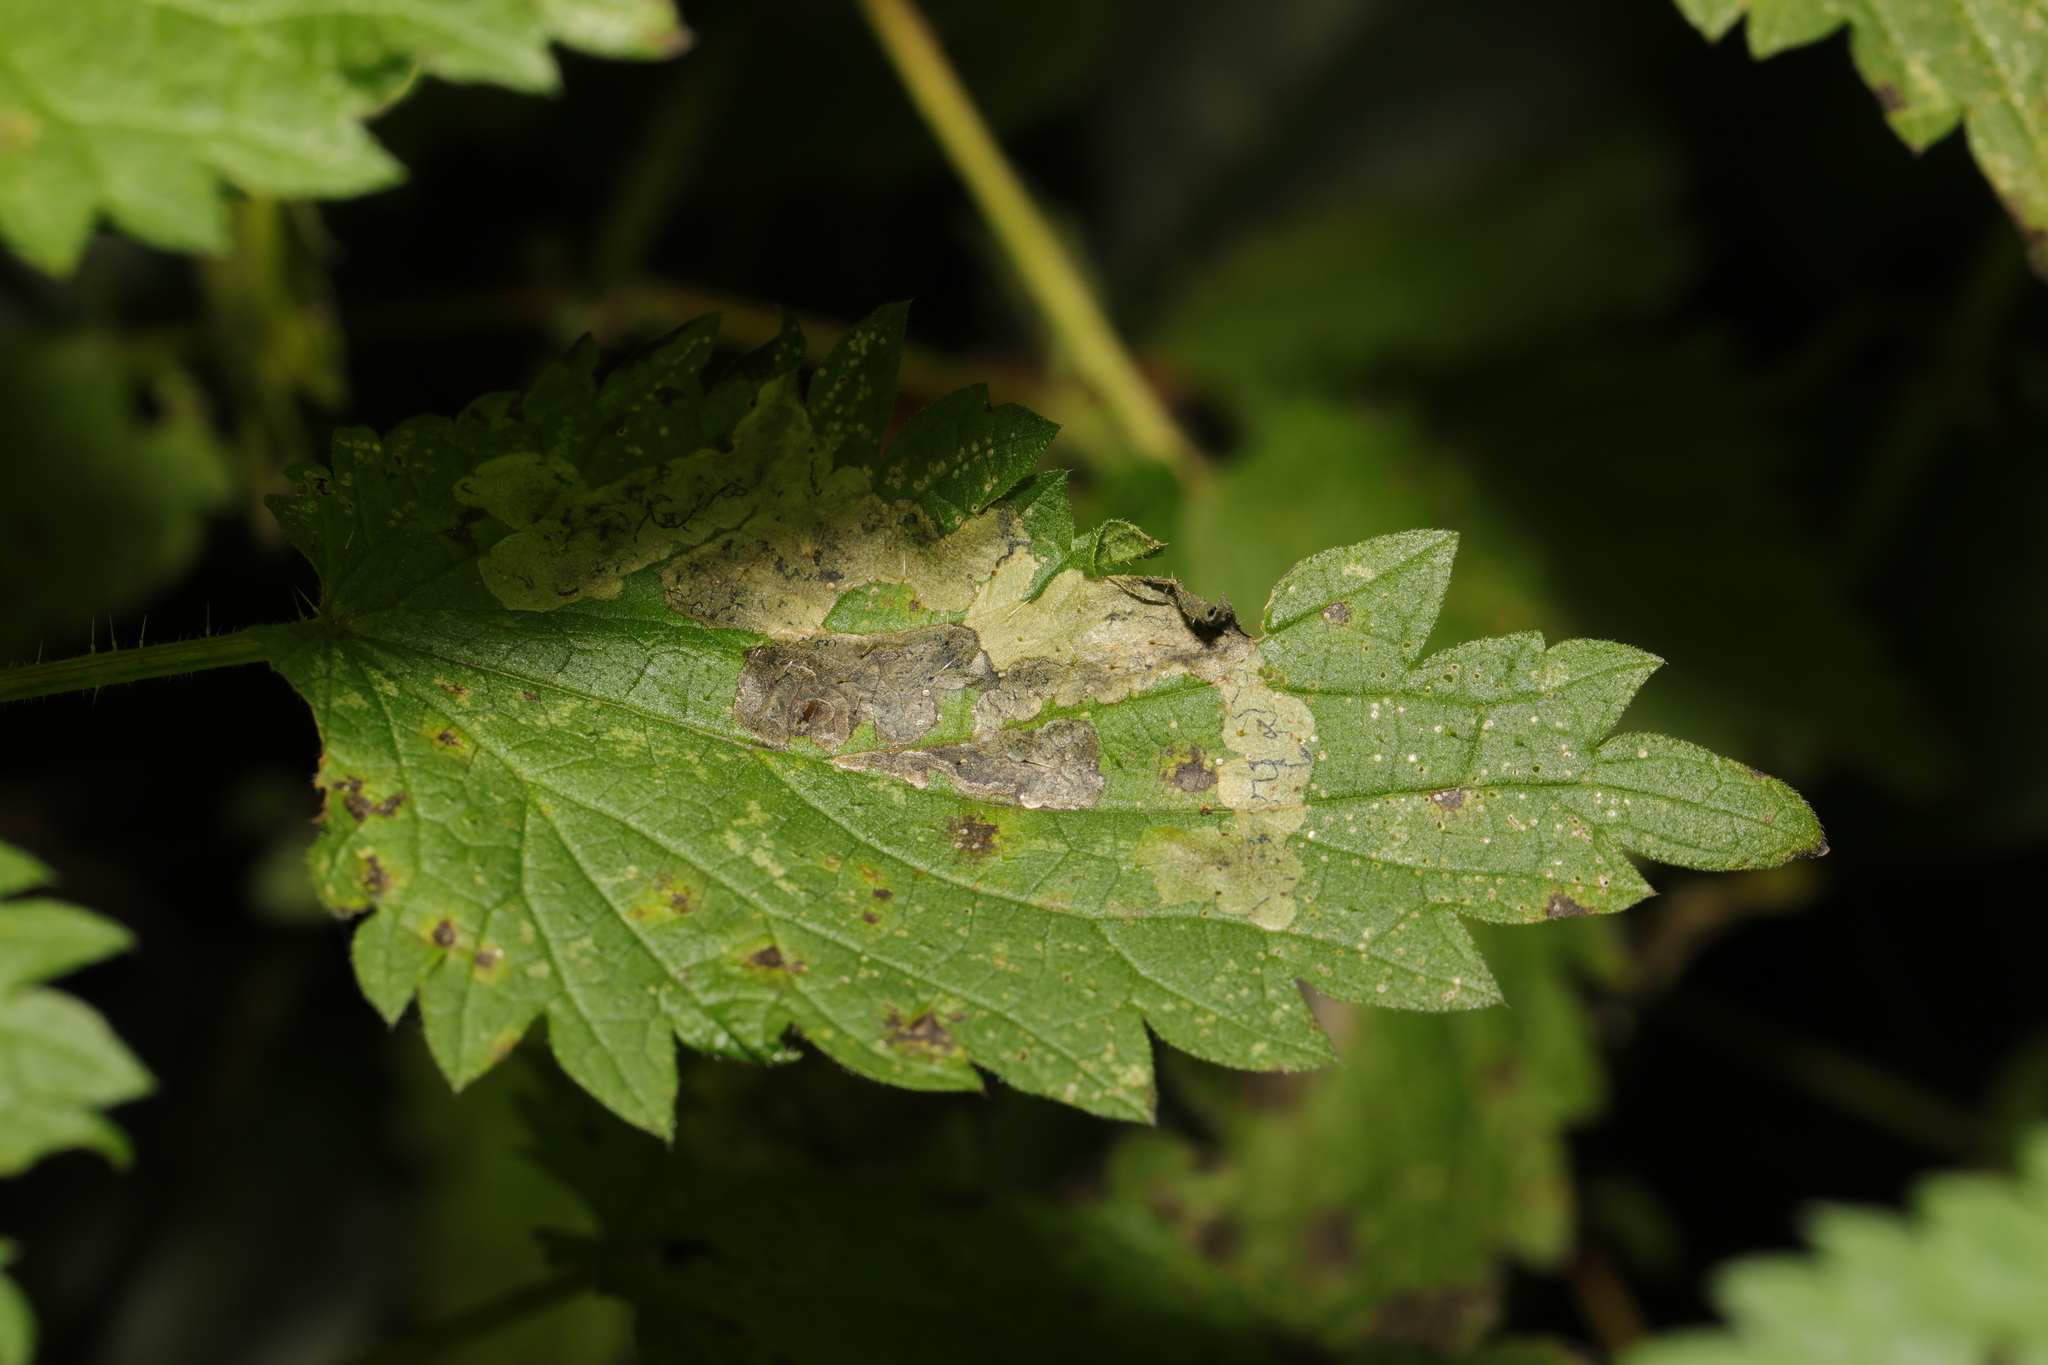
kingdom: Animalia
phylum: Arthropoda
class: Insecta
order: Diptera
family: Agromyzidae
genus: Agromyza
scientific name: Agromyza anthracina
